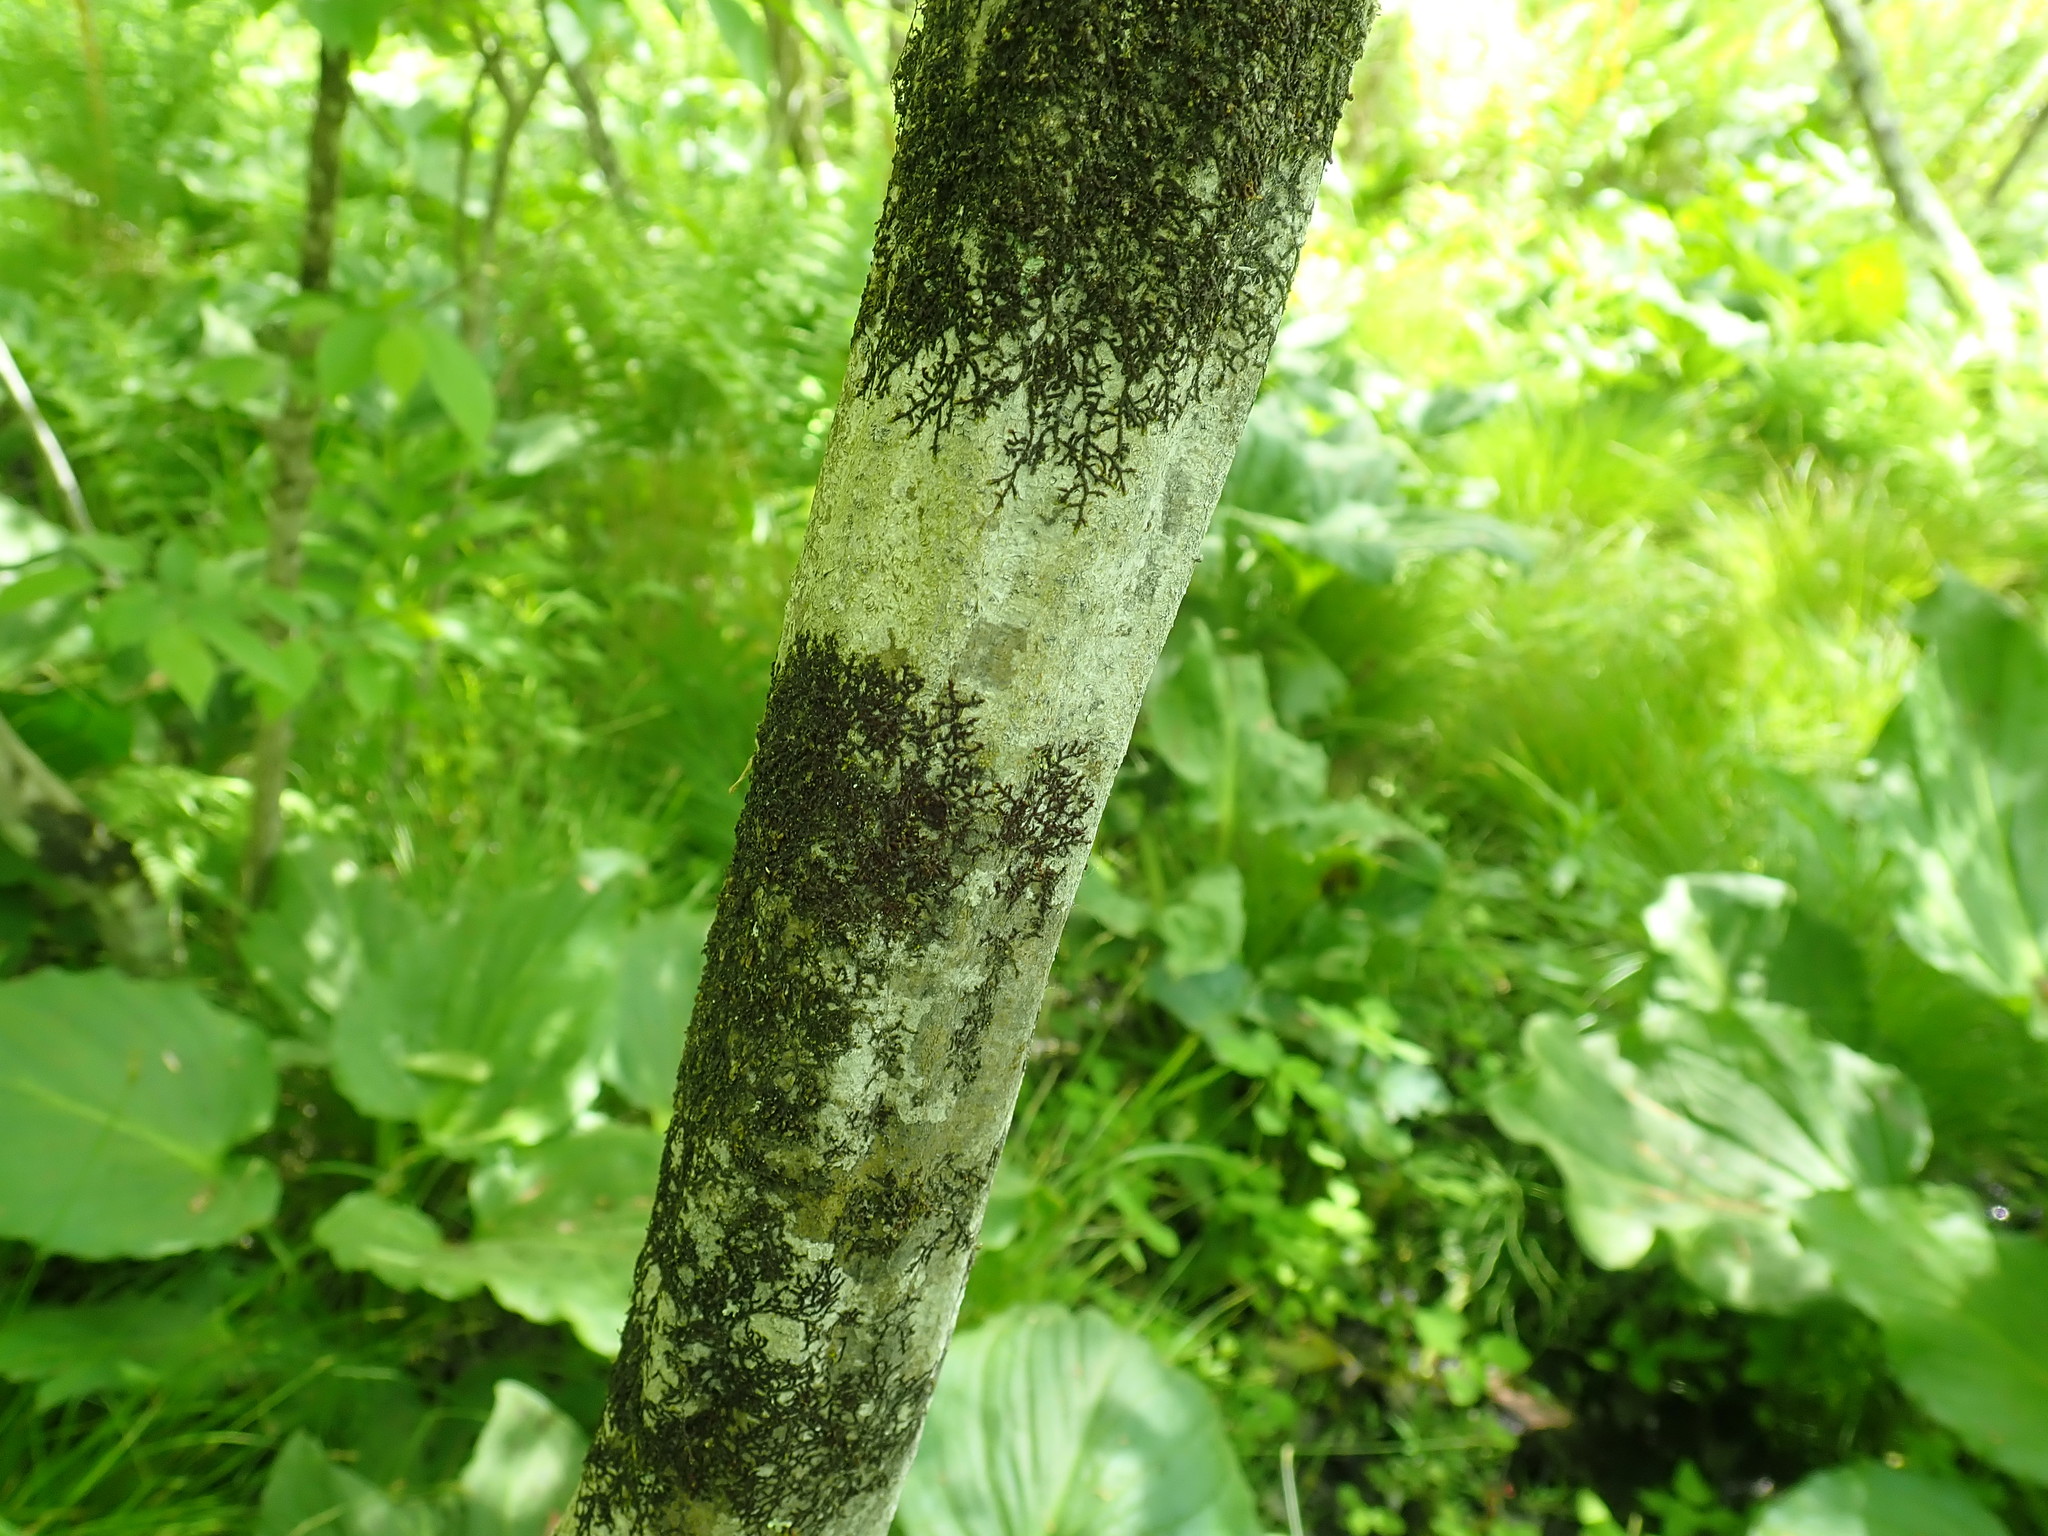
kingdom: Plantae
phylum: Tracheophyta
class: Magnoliopsida
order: Fagales
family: Betulaceae
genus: Carpinus
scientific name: Carpinus caroliniana
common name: American hornbeam
